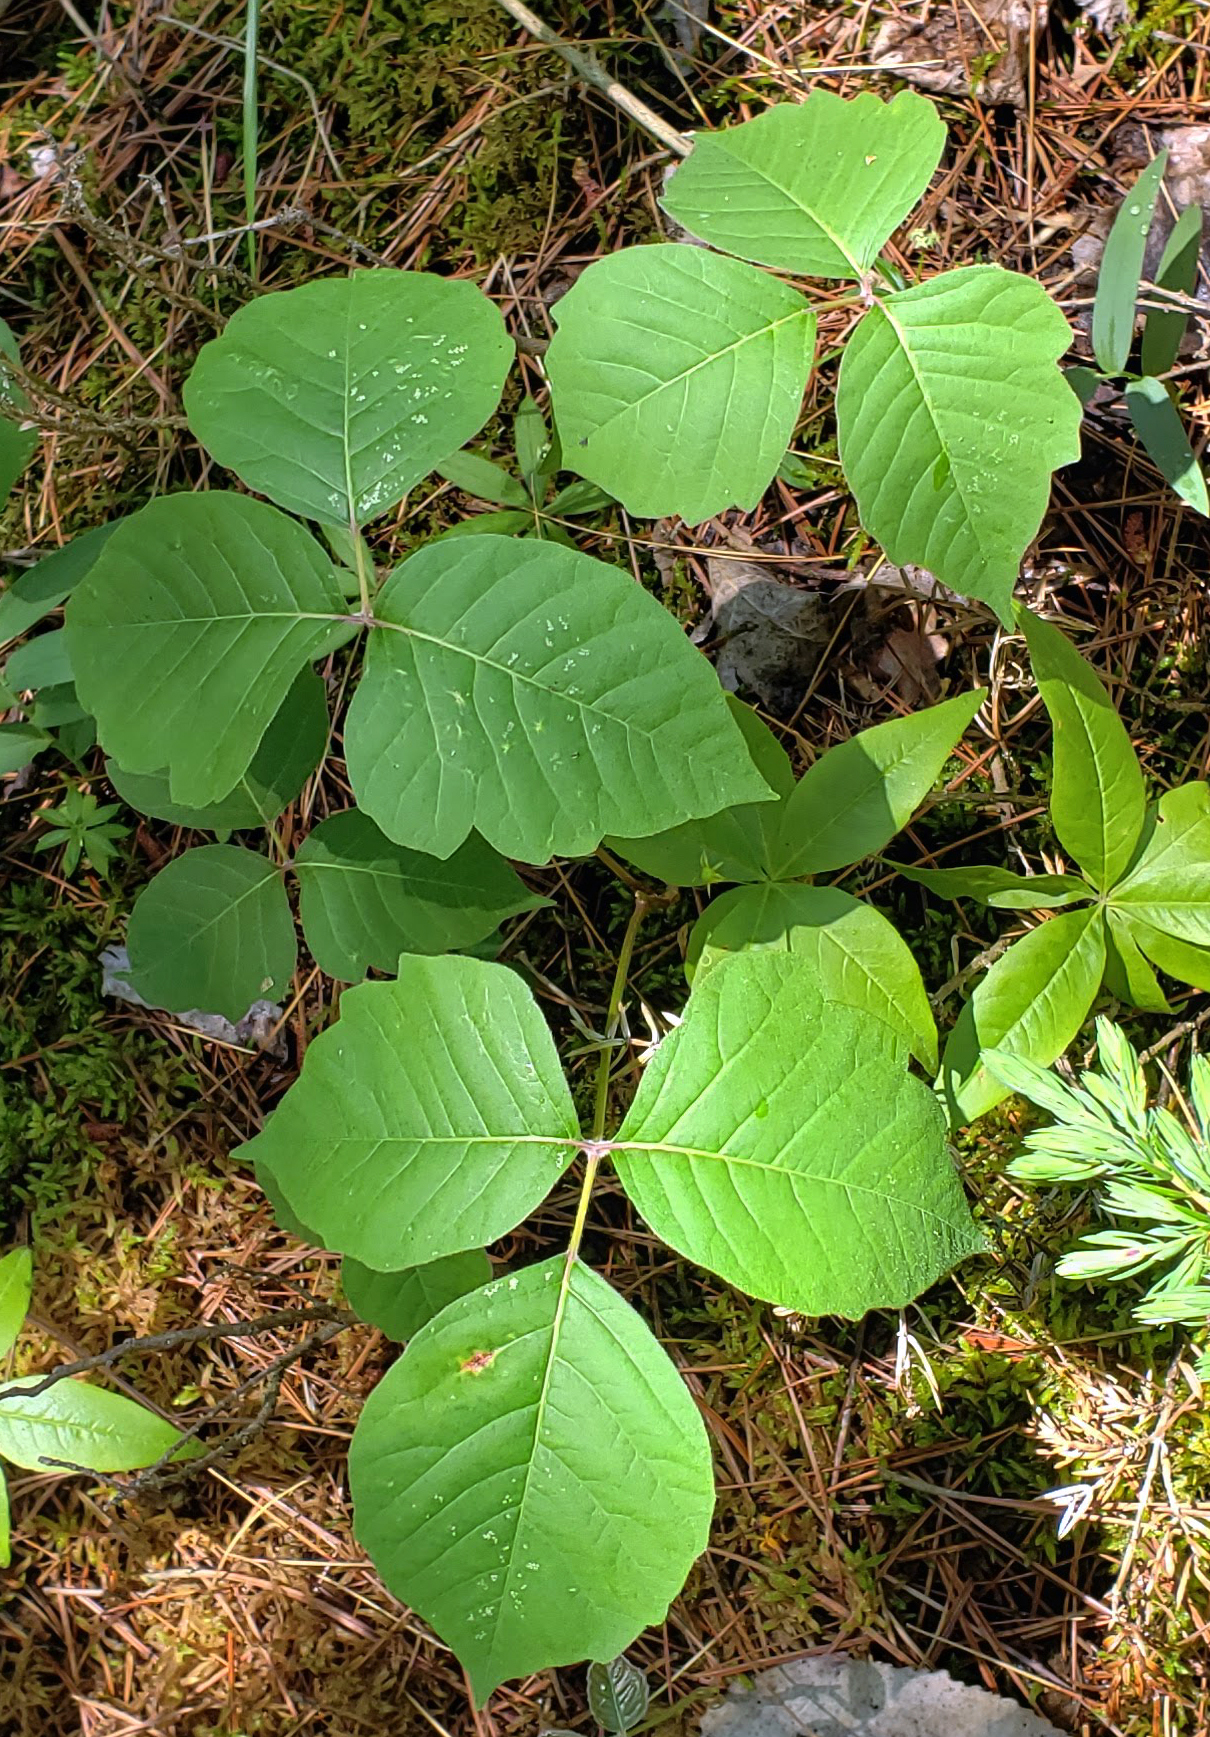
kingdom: Plantae
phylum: Tracheophyta
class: Magnoliopsida
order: Sapindales
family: Anacardiaceae
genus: Toxicodendron
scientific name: Toxicodendron rydbergii
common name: Rydberg's poison-ivy
